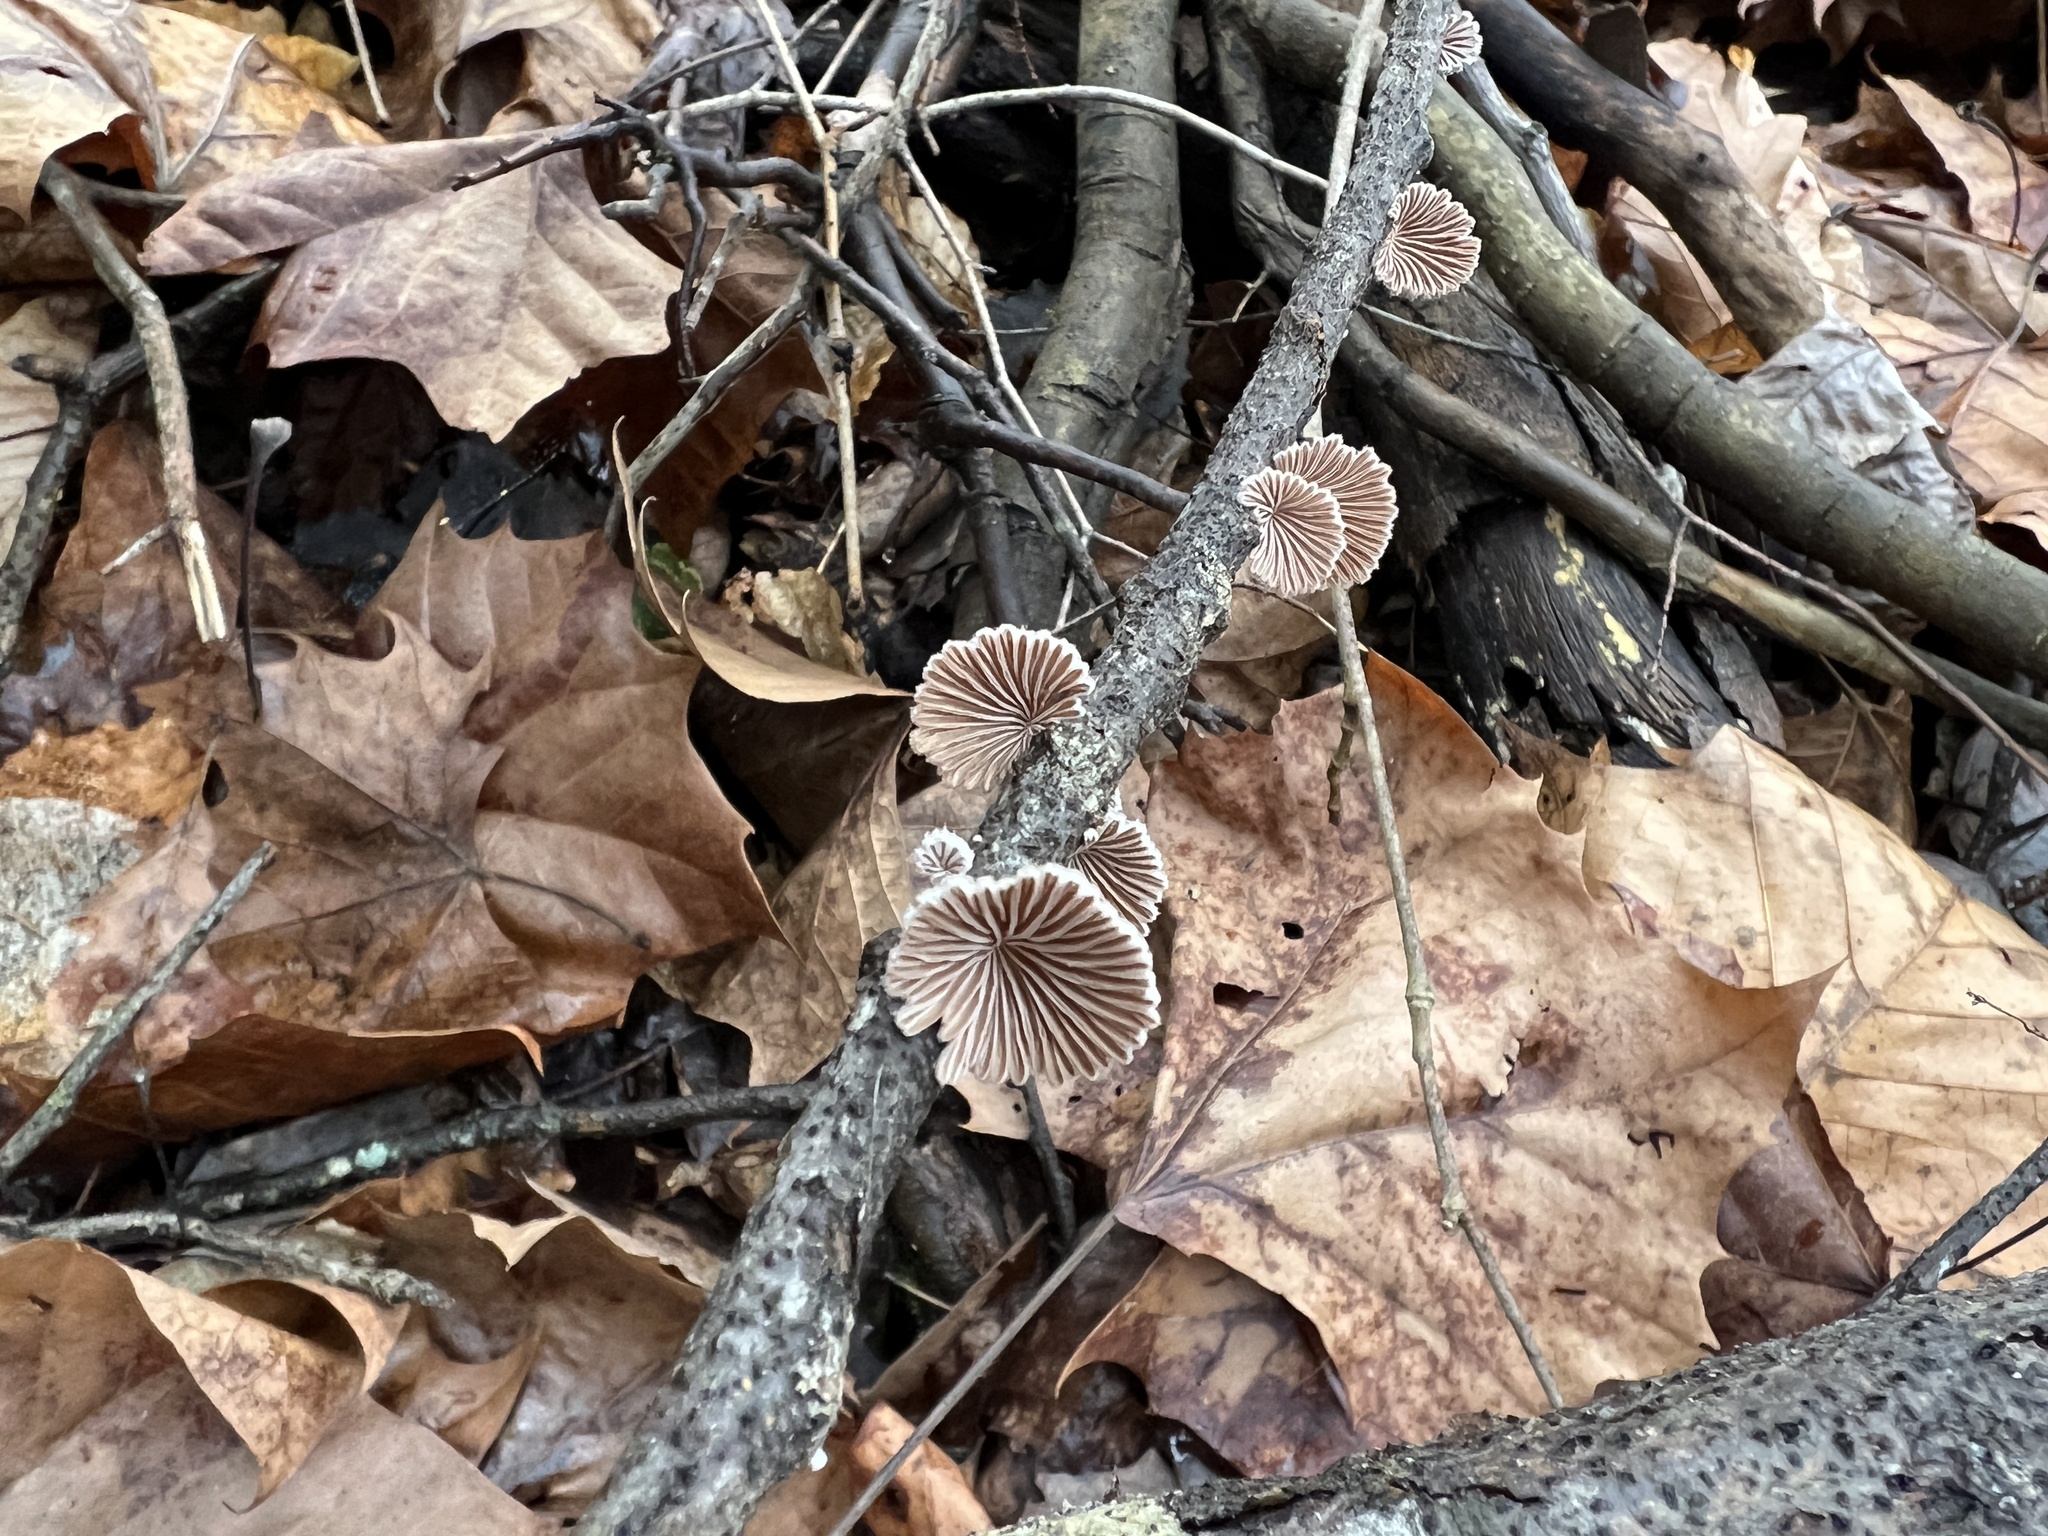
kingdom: Fungi
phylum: Basidiomycota
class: Agaricomycetes
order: Agaricales
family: Schizophyllaceae
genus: Schizophyllum
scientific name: Schizophyllum commune
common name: Common porecrust
